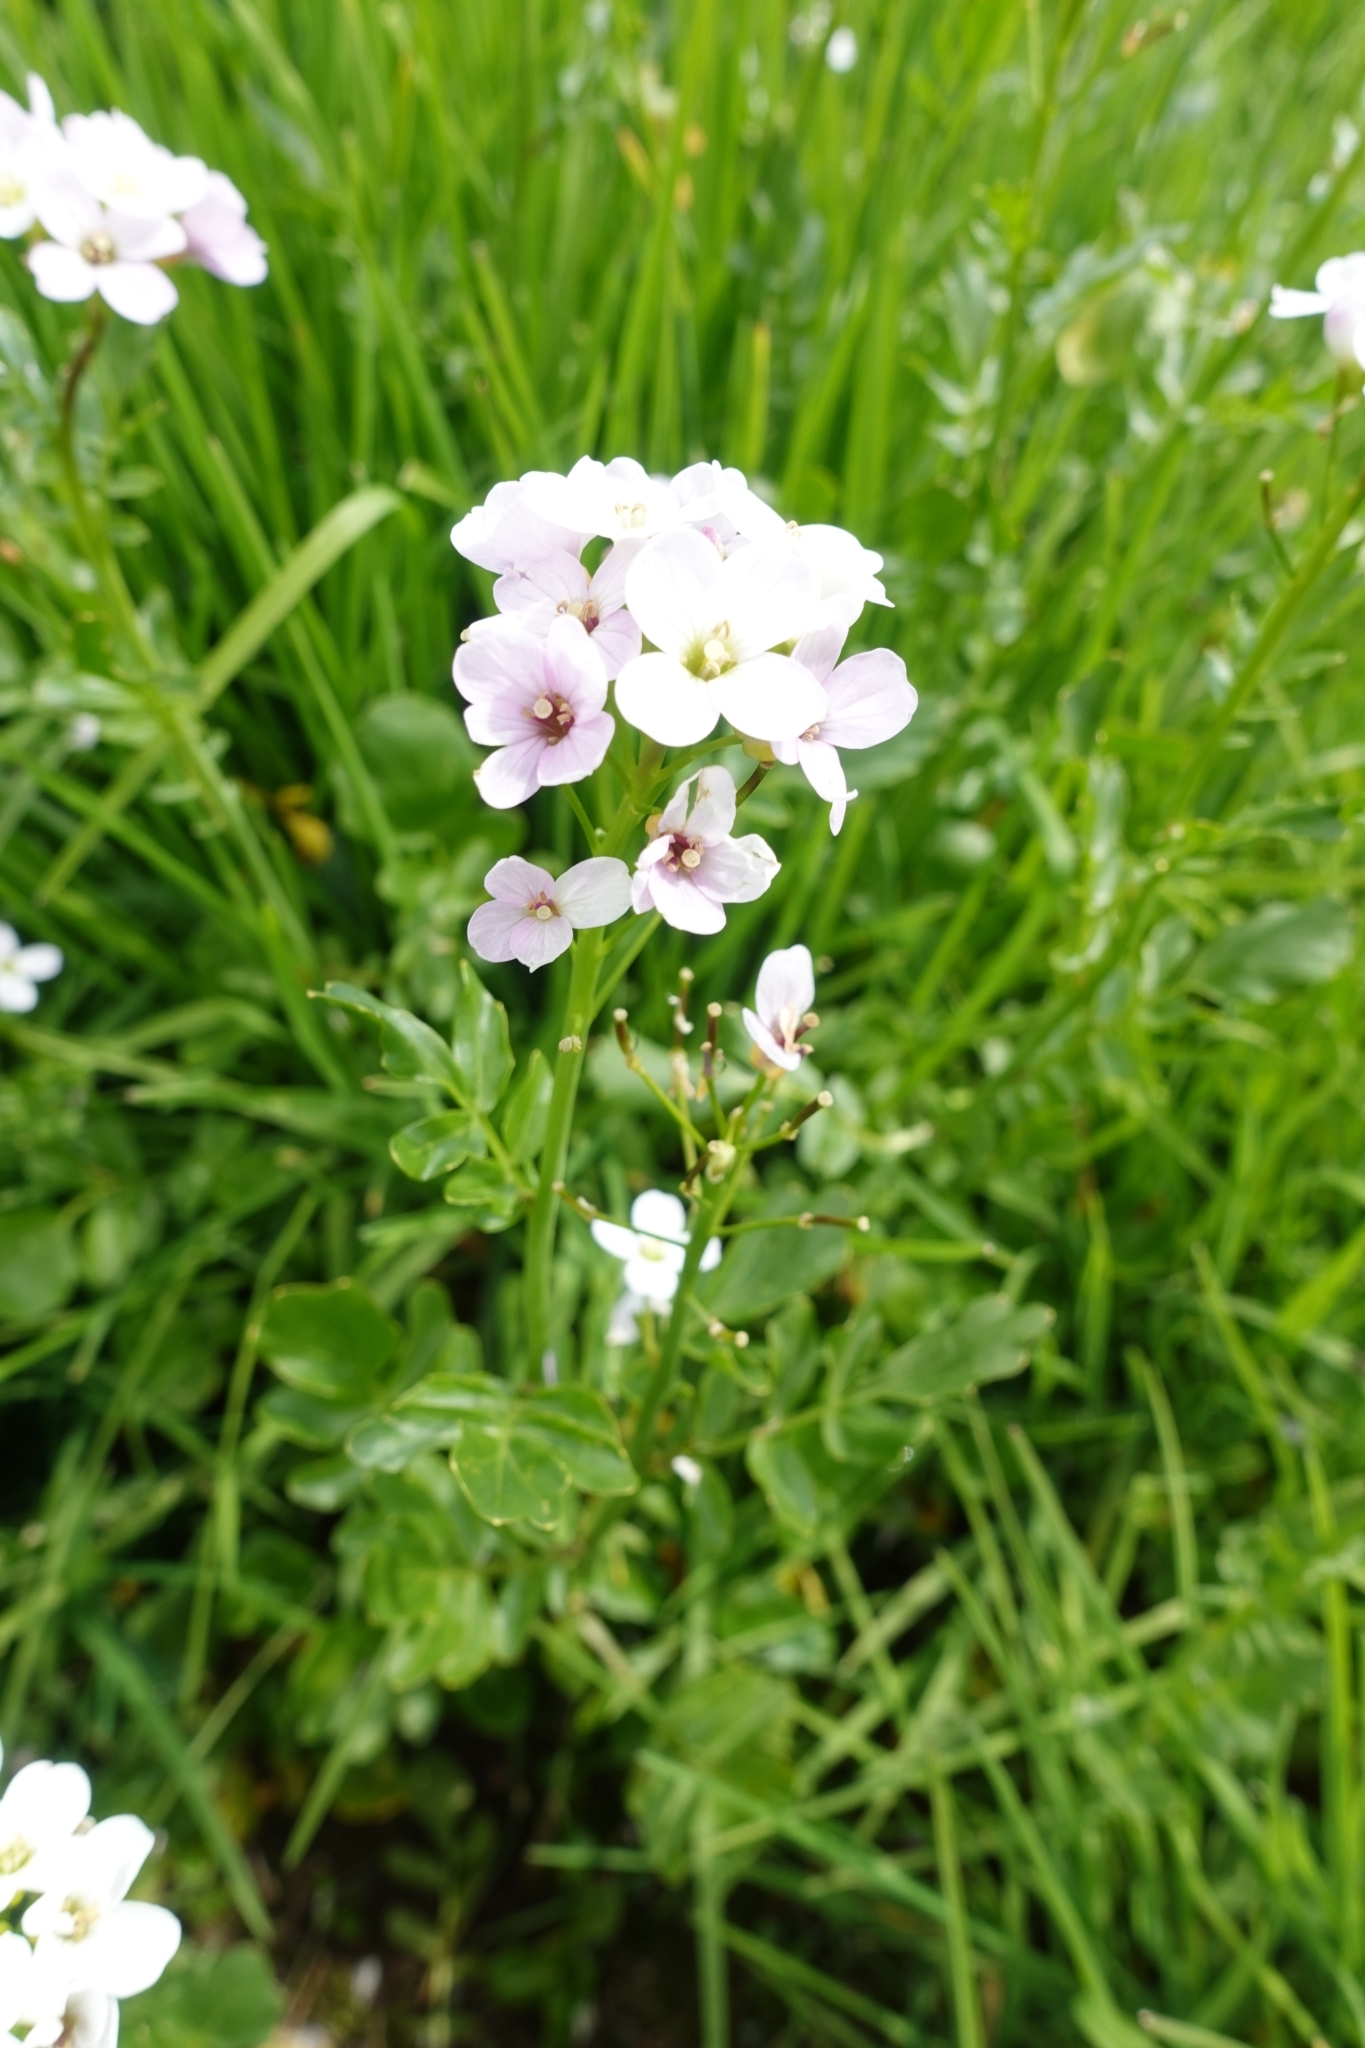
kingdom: Plantae
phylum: Tracheophyta
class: Magnoliopsida
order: Brassicales
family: Brassicaceae
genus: Cardamine
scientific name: Cardamine uliginosa
